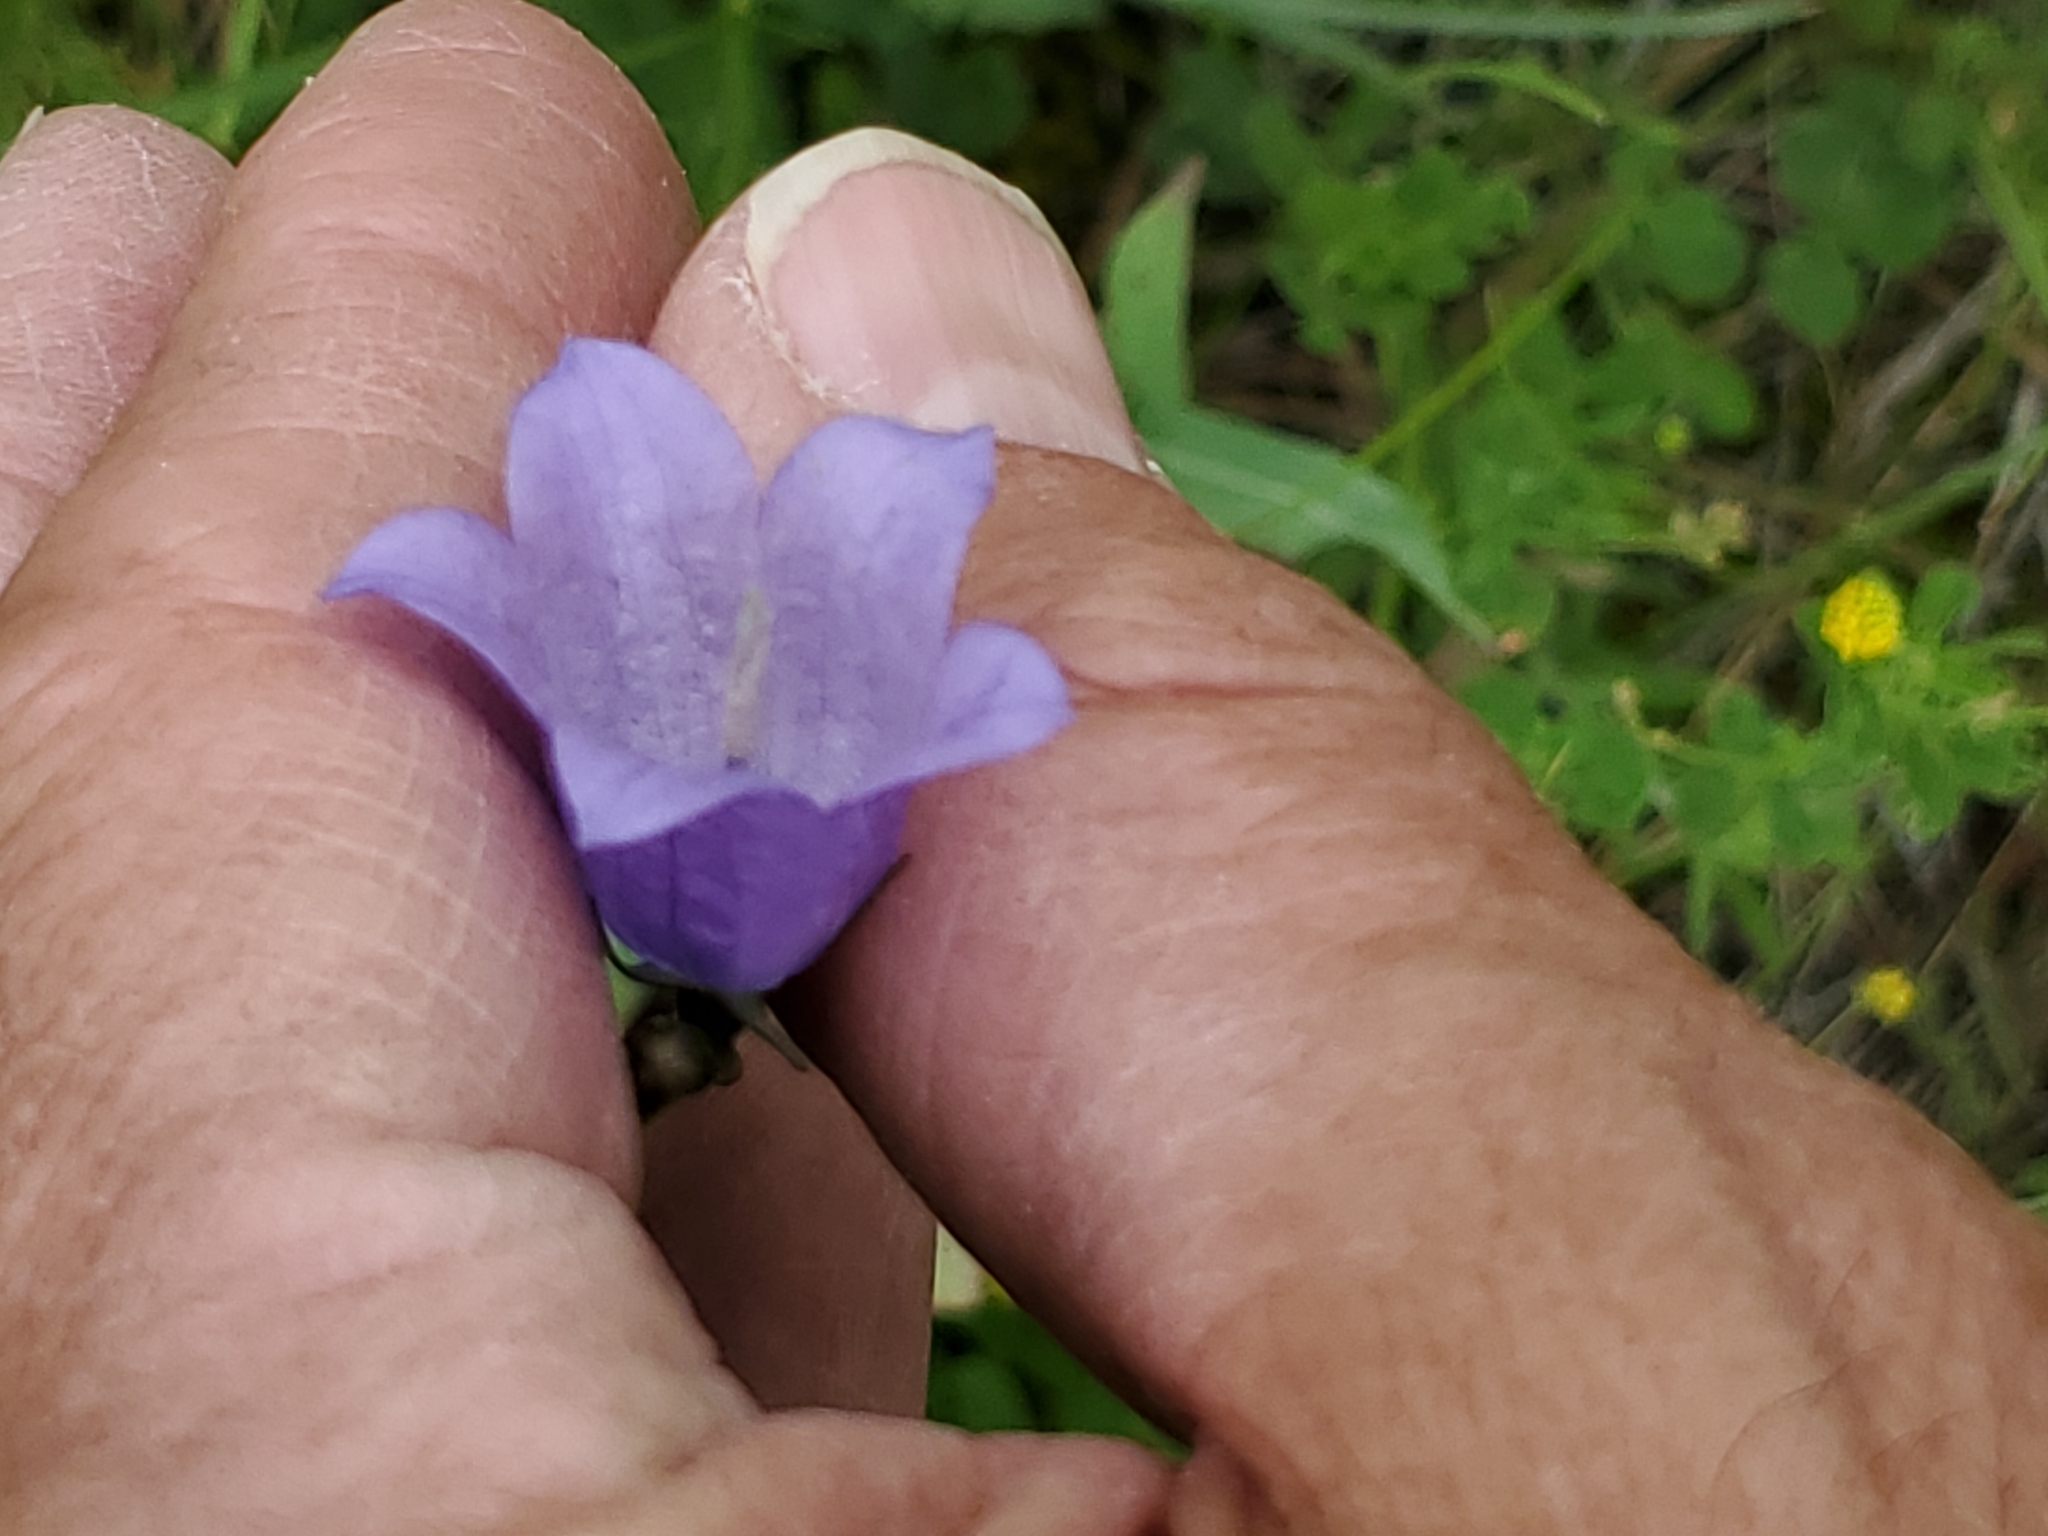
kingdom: Plantae
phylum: Tracheophyta
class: Magnoliopsida
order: Asterales
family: Campanulaceae
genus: Campanula
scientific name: Campanula petiolata
